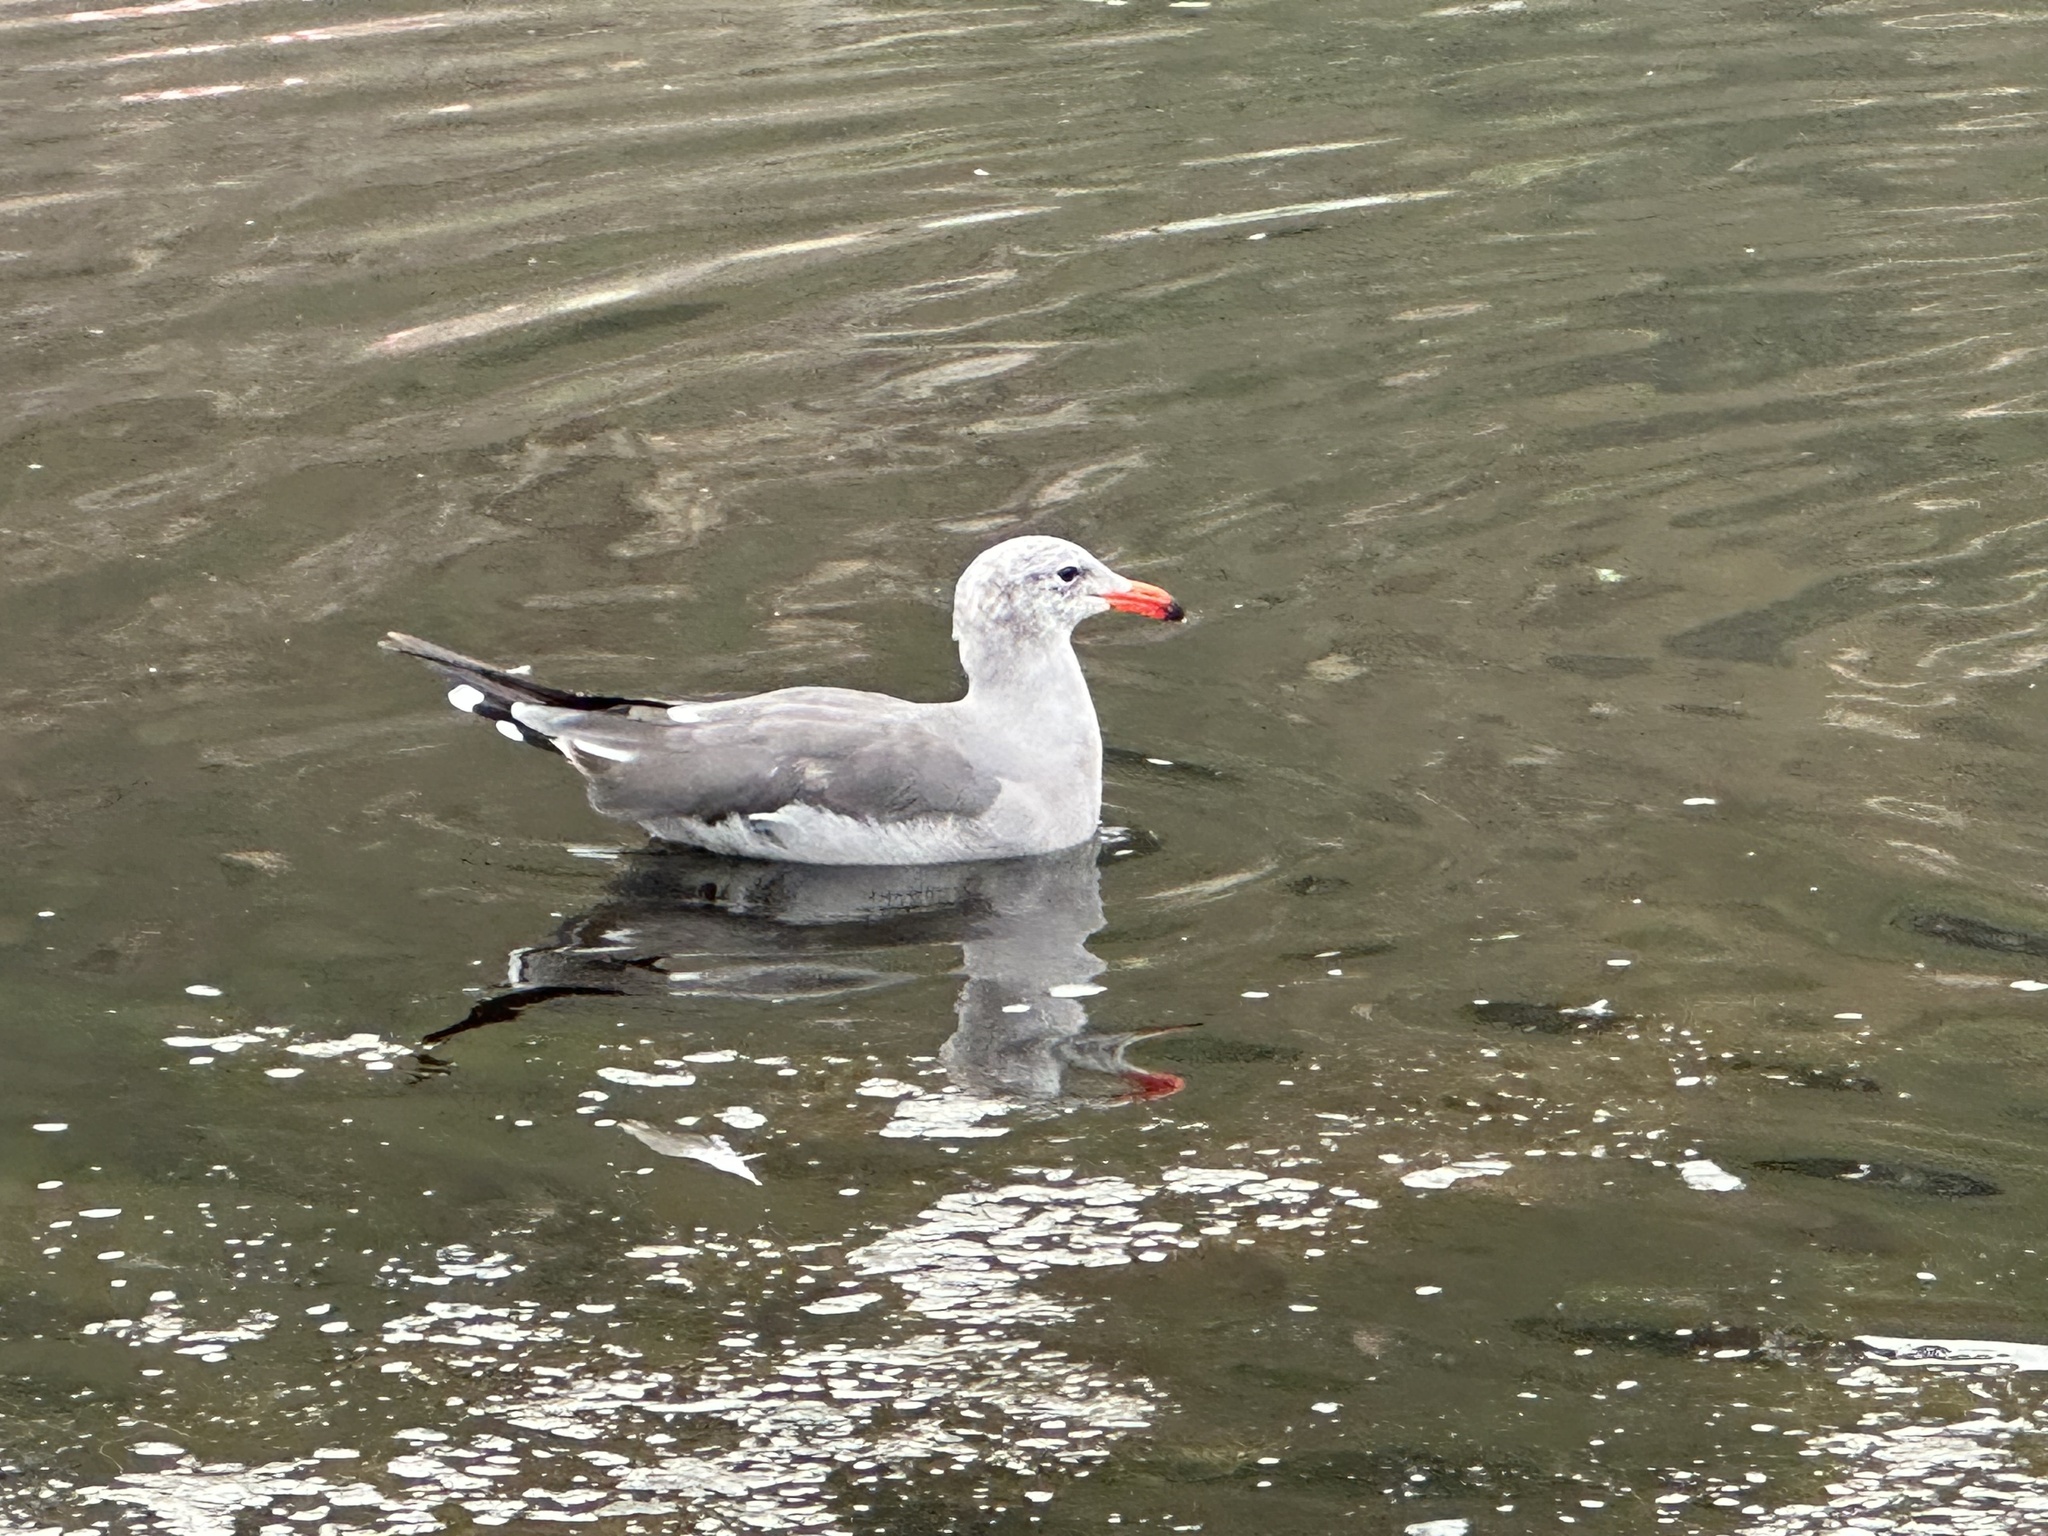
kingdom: Animalia
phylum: Chordata
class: Aves
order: Charadriiformes
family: Laridae
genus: Larus
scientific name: Larus heermanni
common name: Heermann's gull
